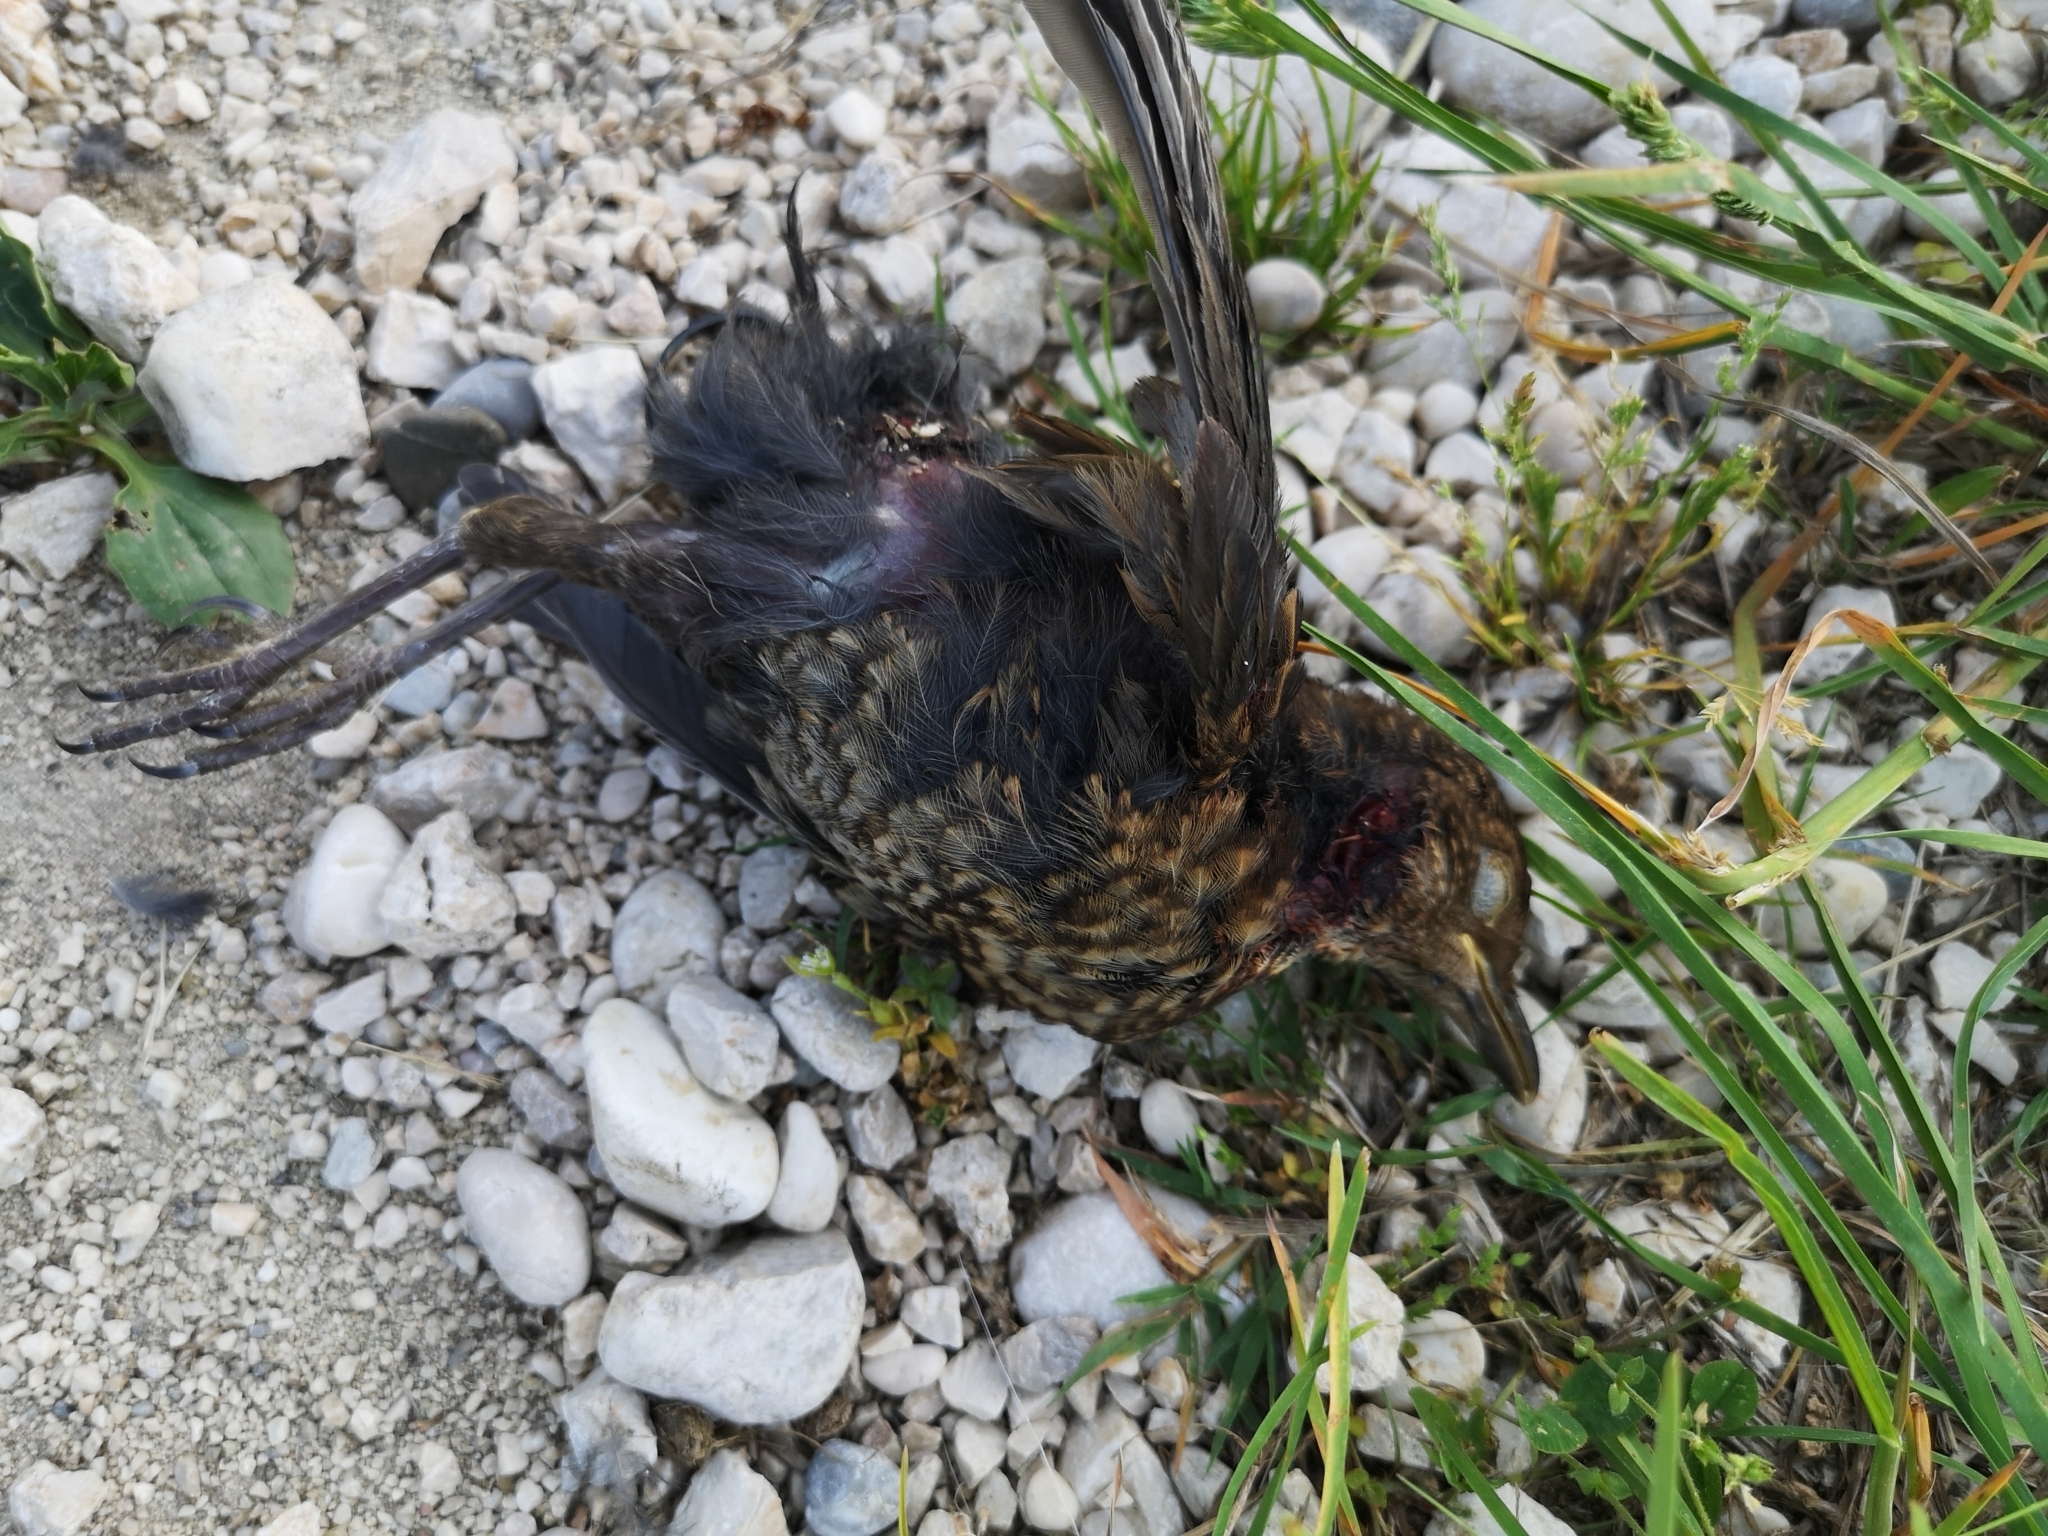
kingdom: Animalia
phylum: Chordata
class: Aves
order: Passeriformes
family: Turdidae
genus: Turdus
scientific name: Turdus merula
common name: Common blackbird
